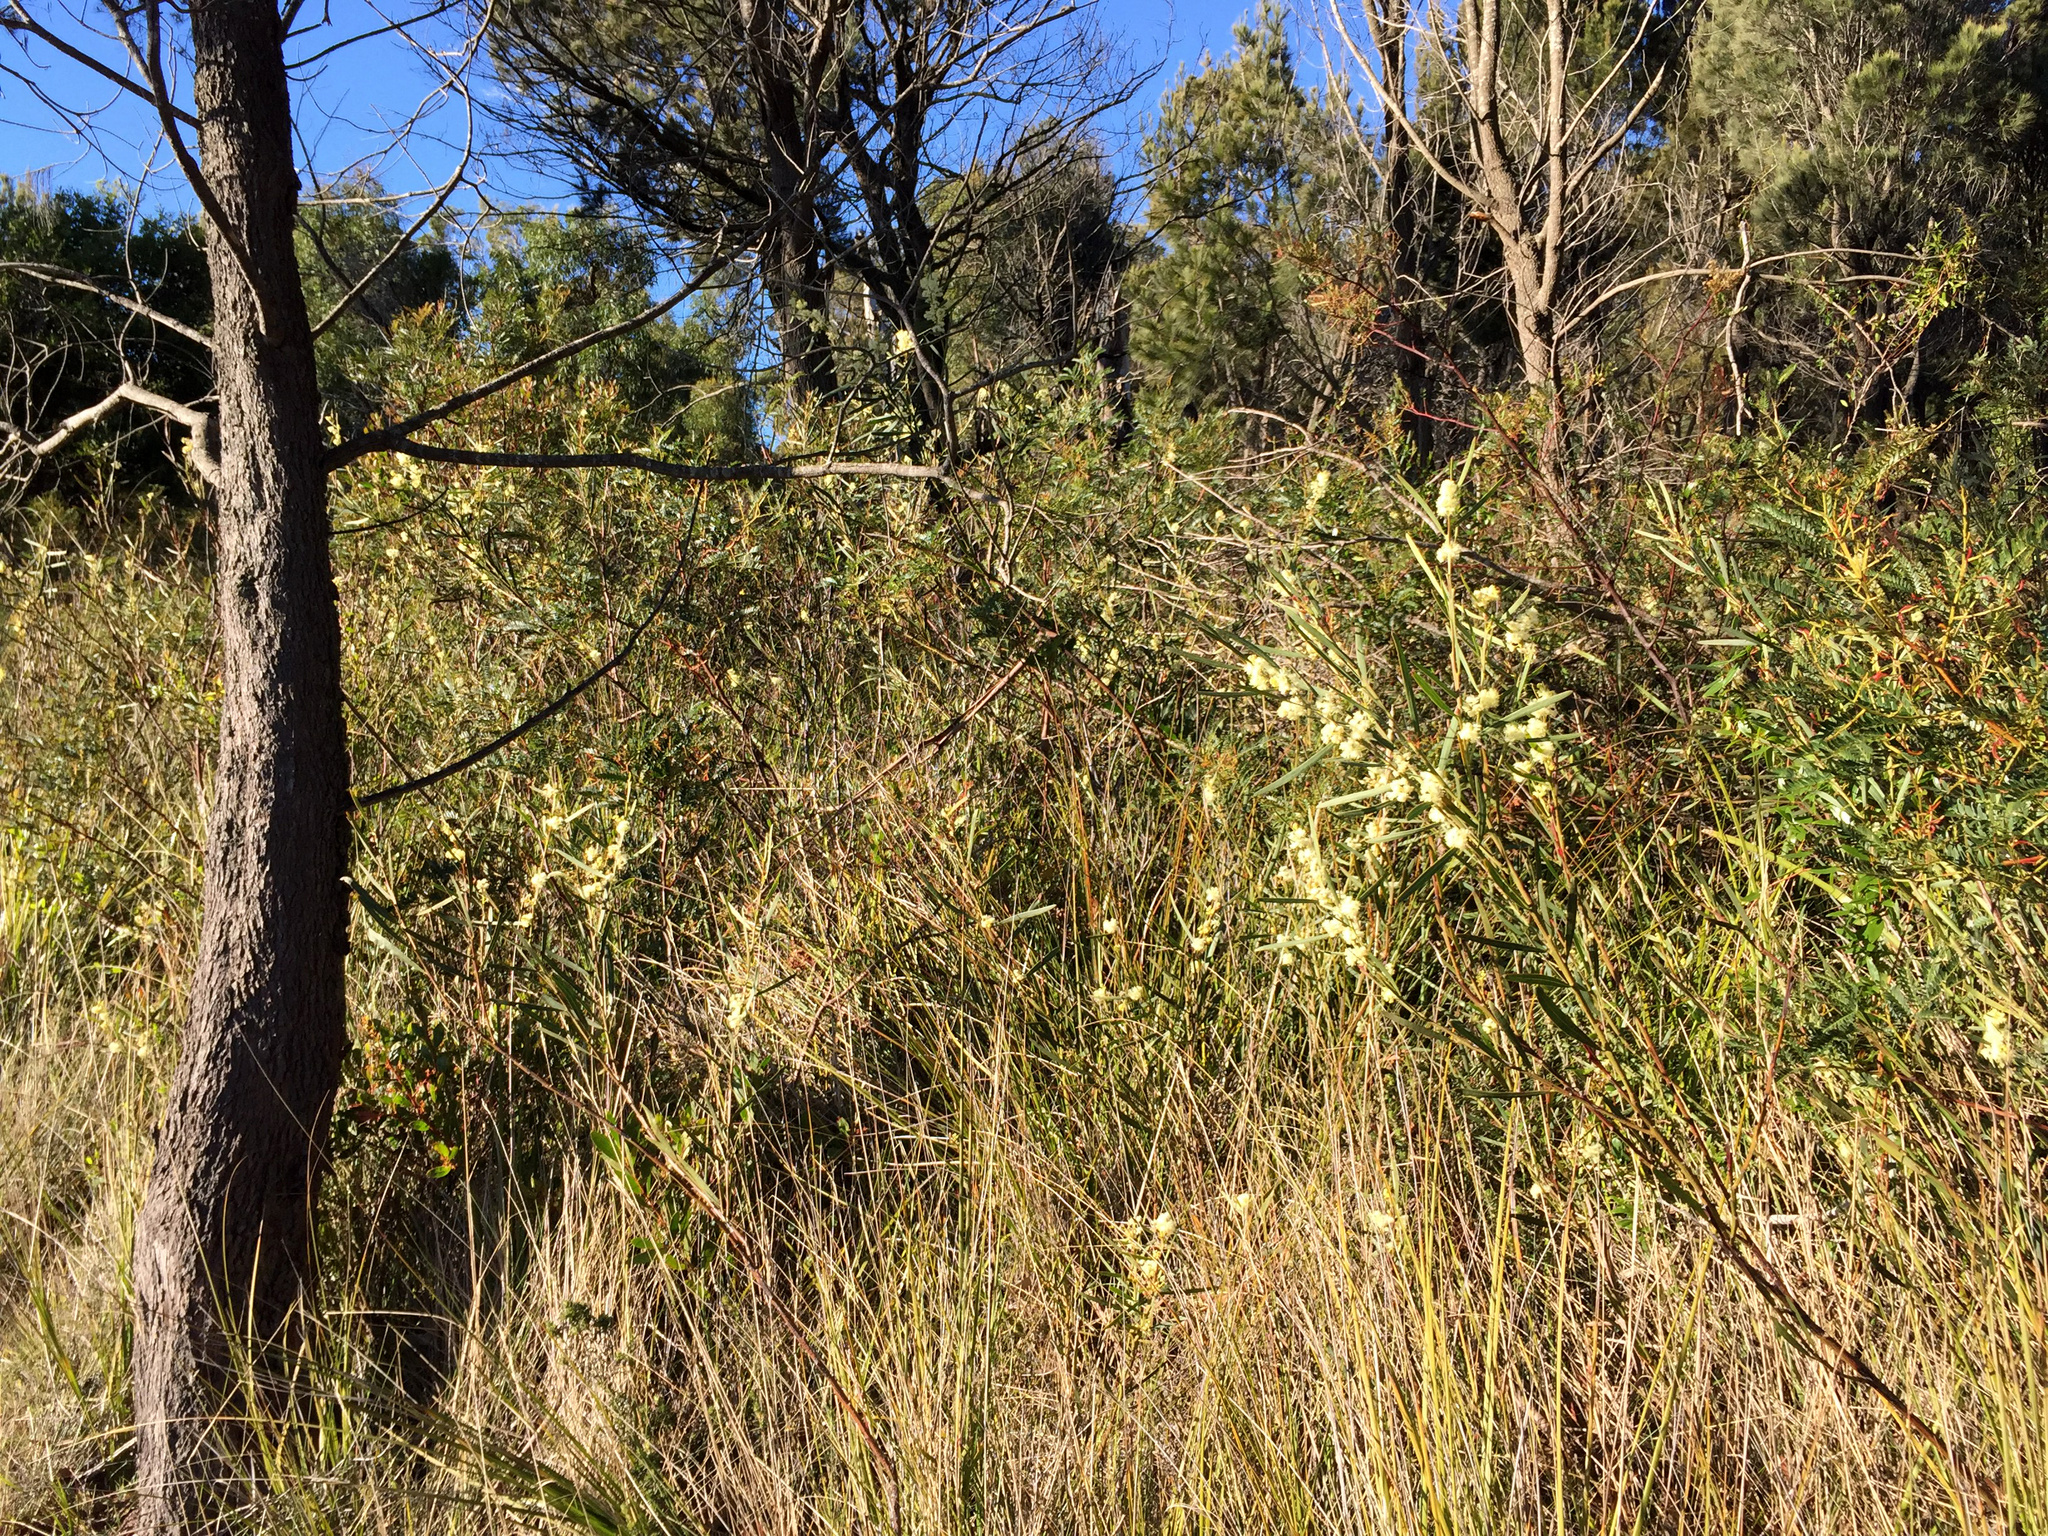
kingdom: Plantae
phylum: Tracheophyta
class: Magnoliopsida
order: Fabales
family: Fabaceae
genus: Acacia
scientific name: Acacia suaveolens
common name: Sweet acacia
